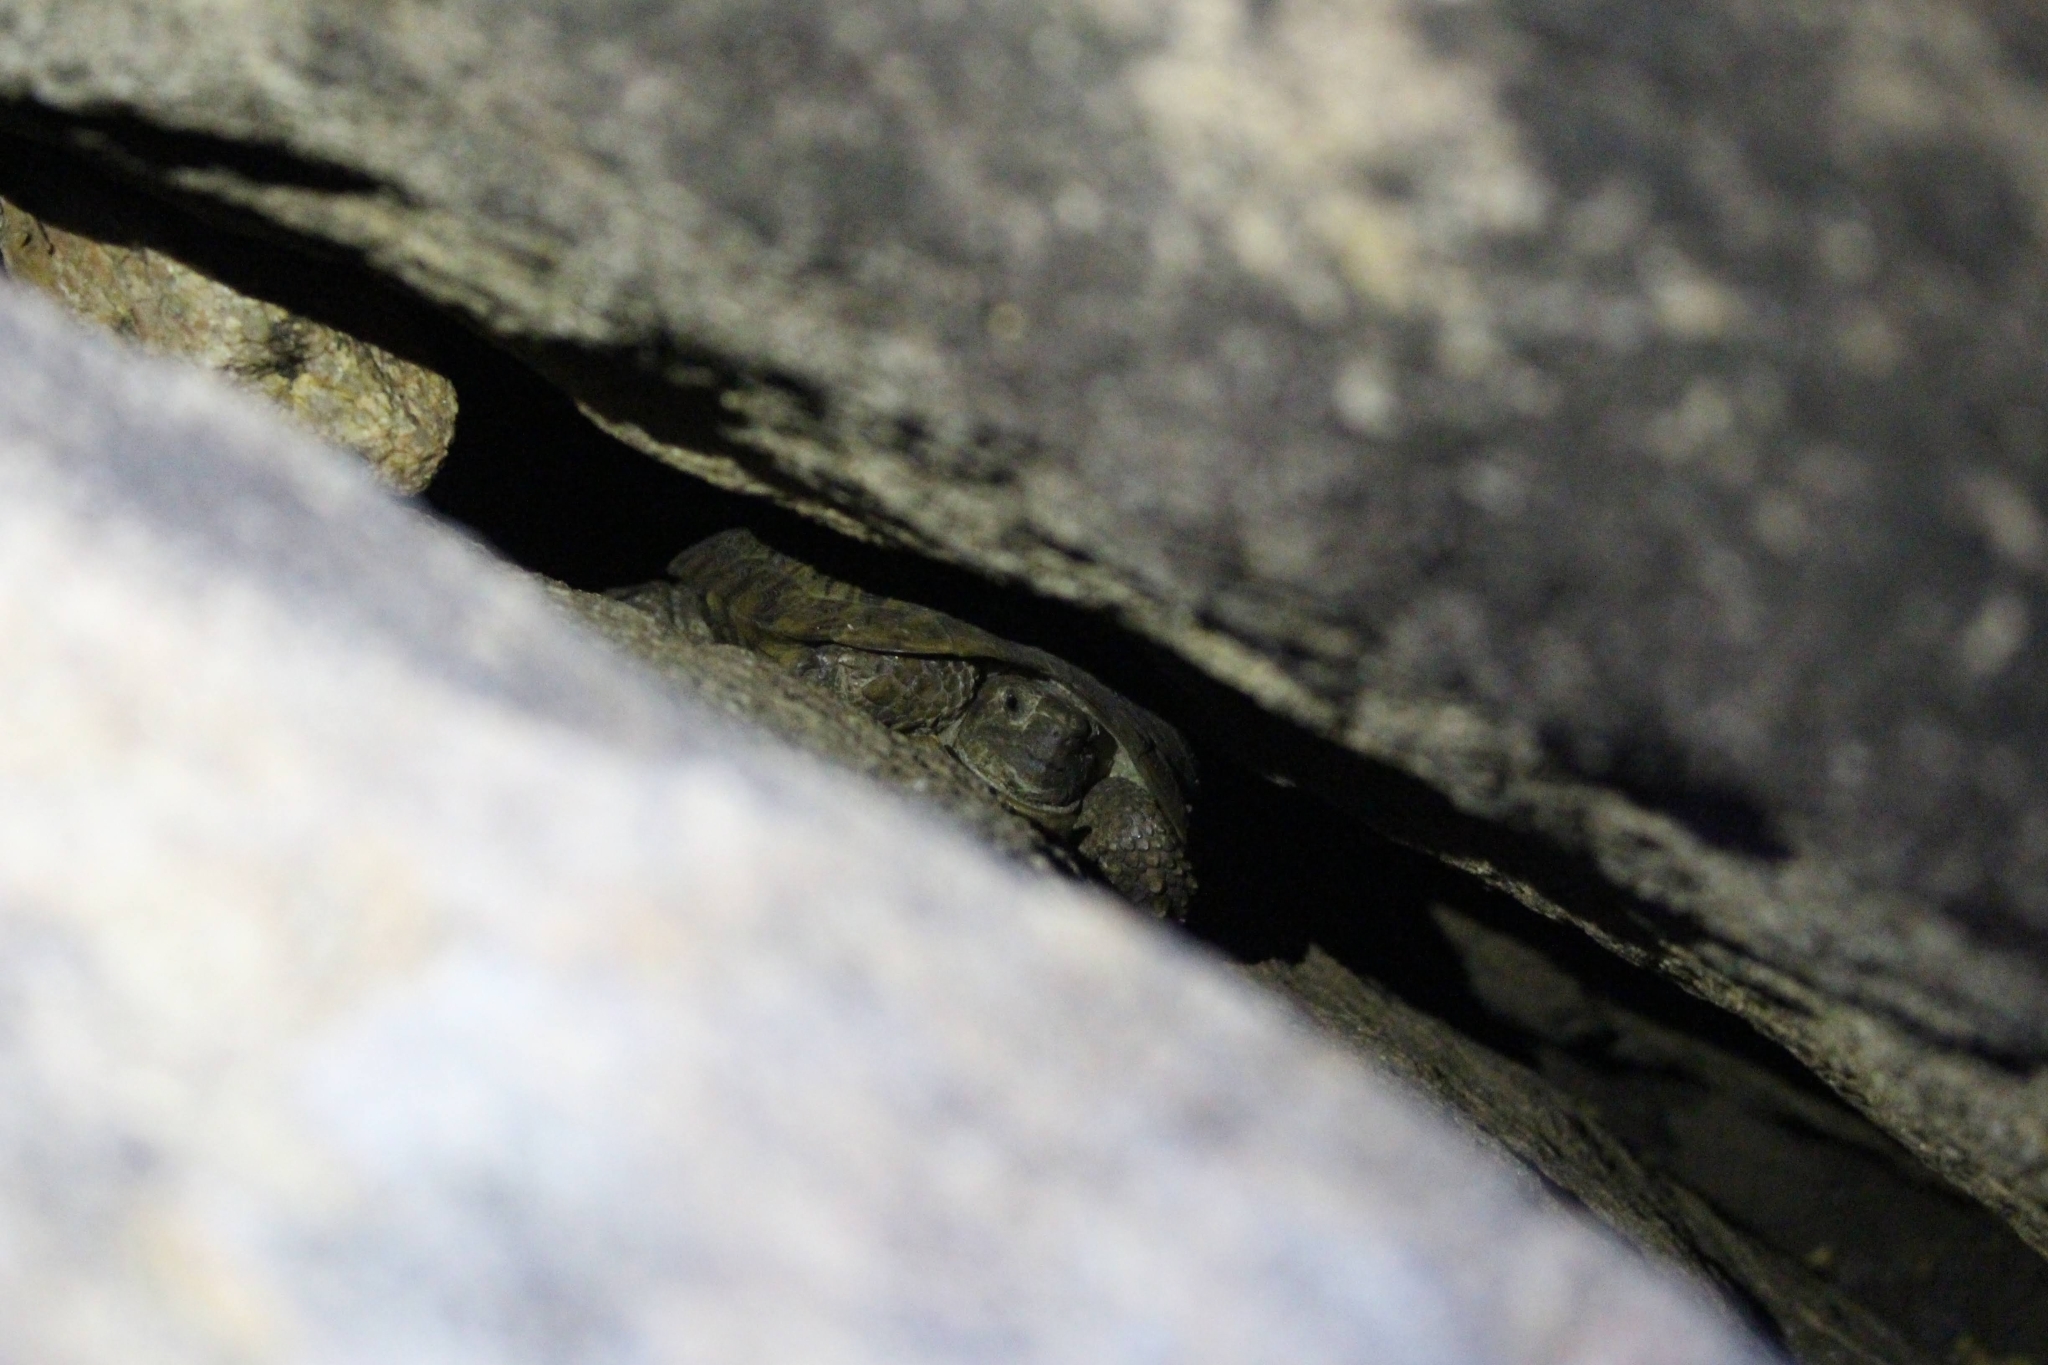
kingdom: Animalia
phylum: Chordata
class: Testudines
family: Testudinidae
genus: Malacochersus
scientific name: Malacochersus tornieri
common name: Pancake tortoise
